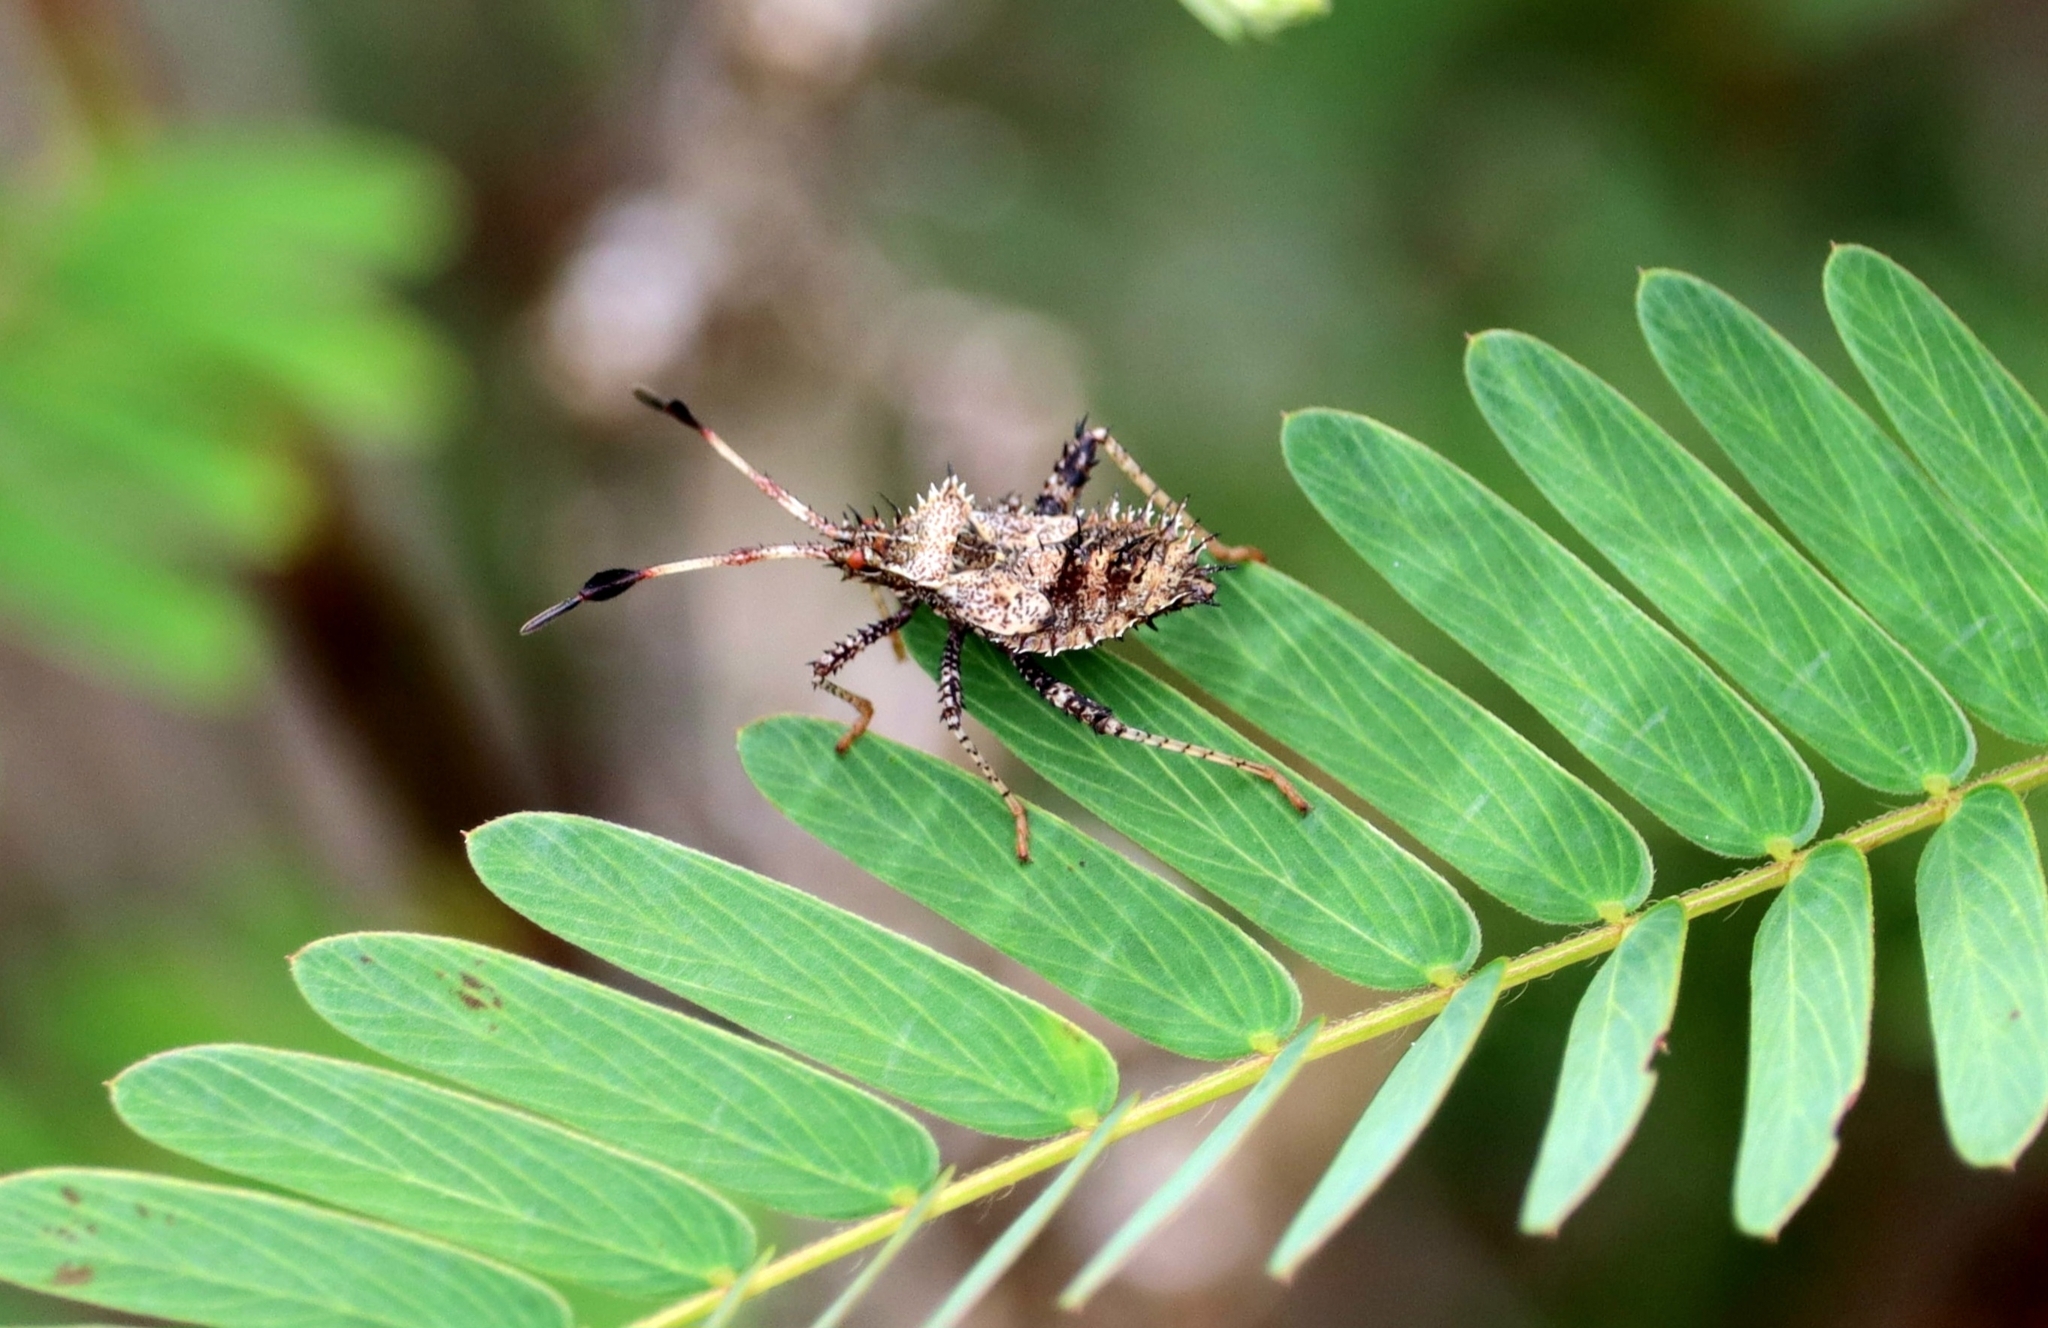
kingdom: Animalia
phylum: Arthropoda
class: Insecta
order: Hemiptera
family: Coreidae
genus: Euthochtha
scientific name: Euthochtha galeator
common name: Helmeted squash bug
